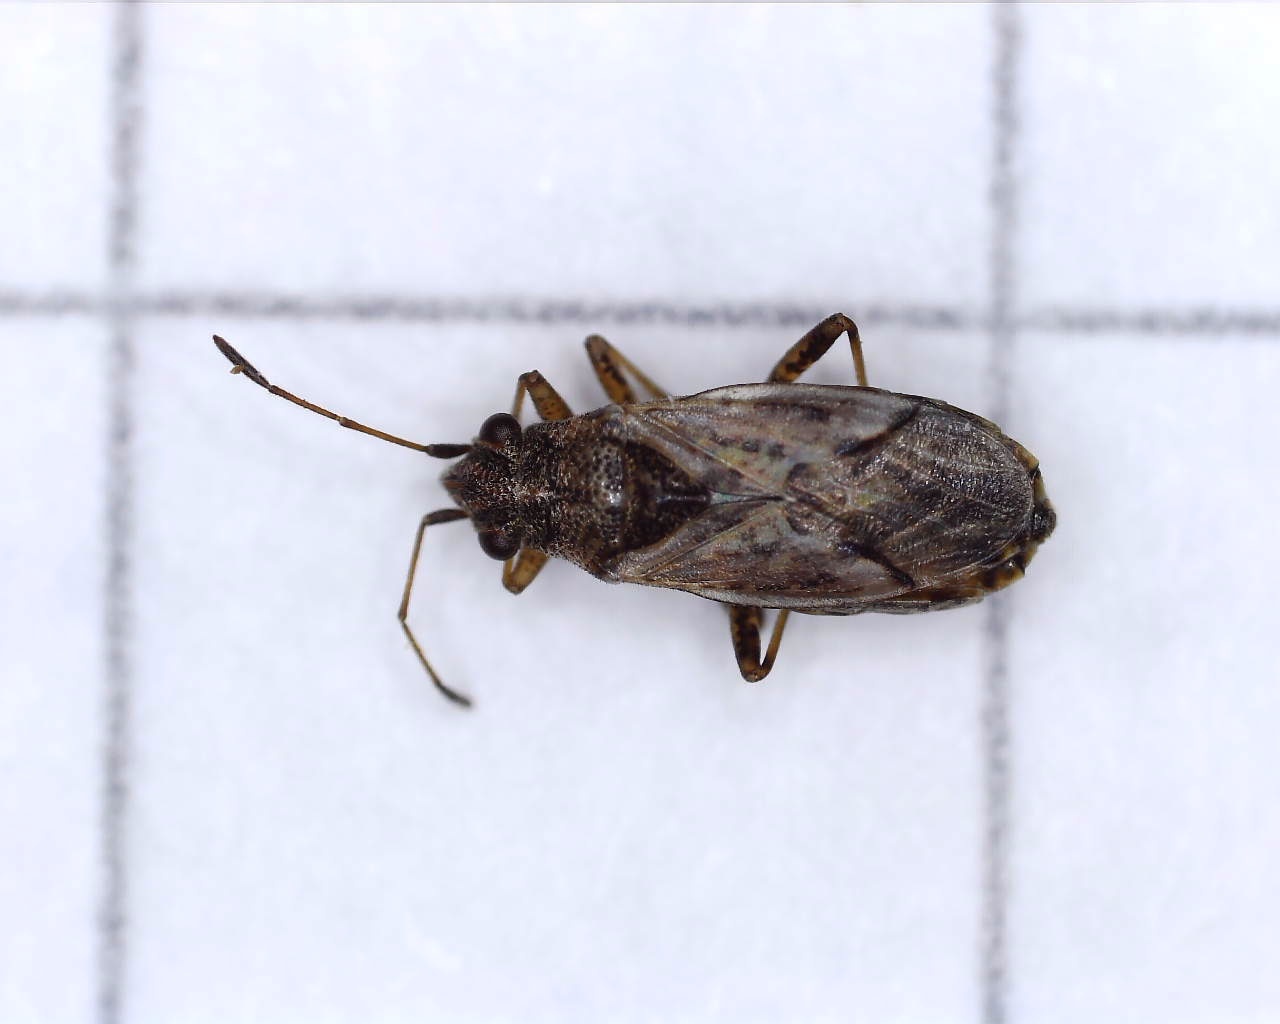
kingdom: Animalia
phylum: Arthropoda
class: Insecta
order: Hemiptera
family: Lygaeidae
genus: Nysius
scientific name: Nysius ericae
